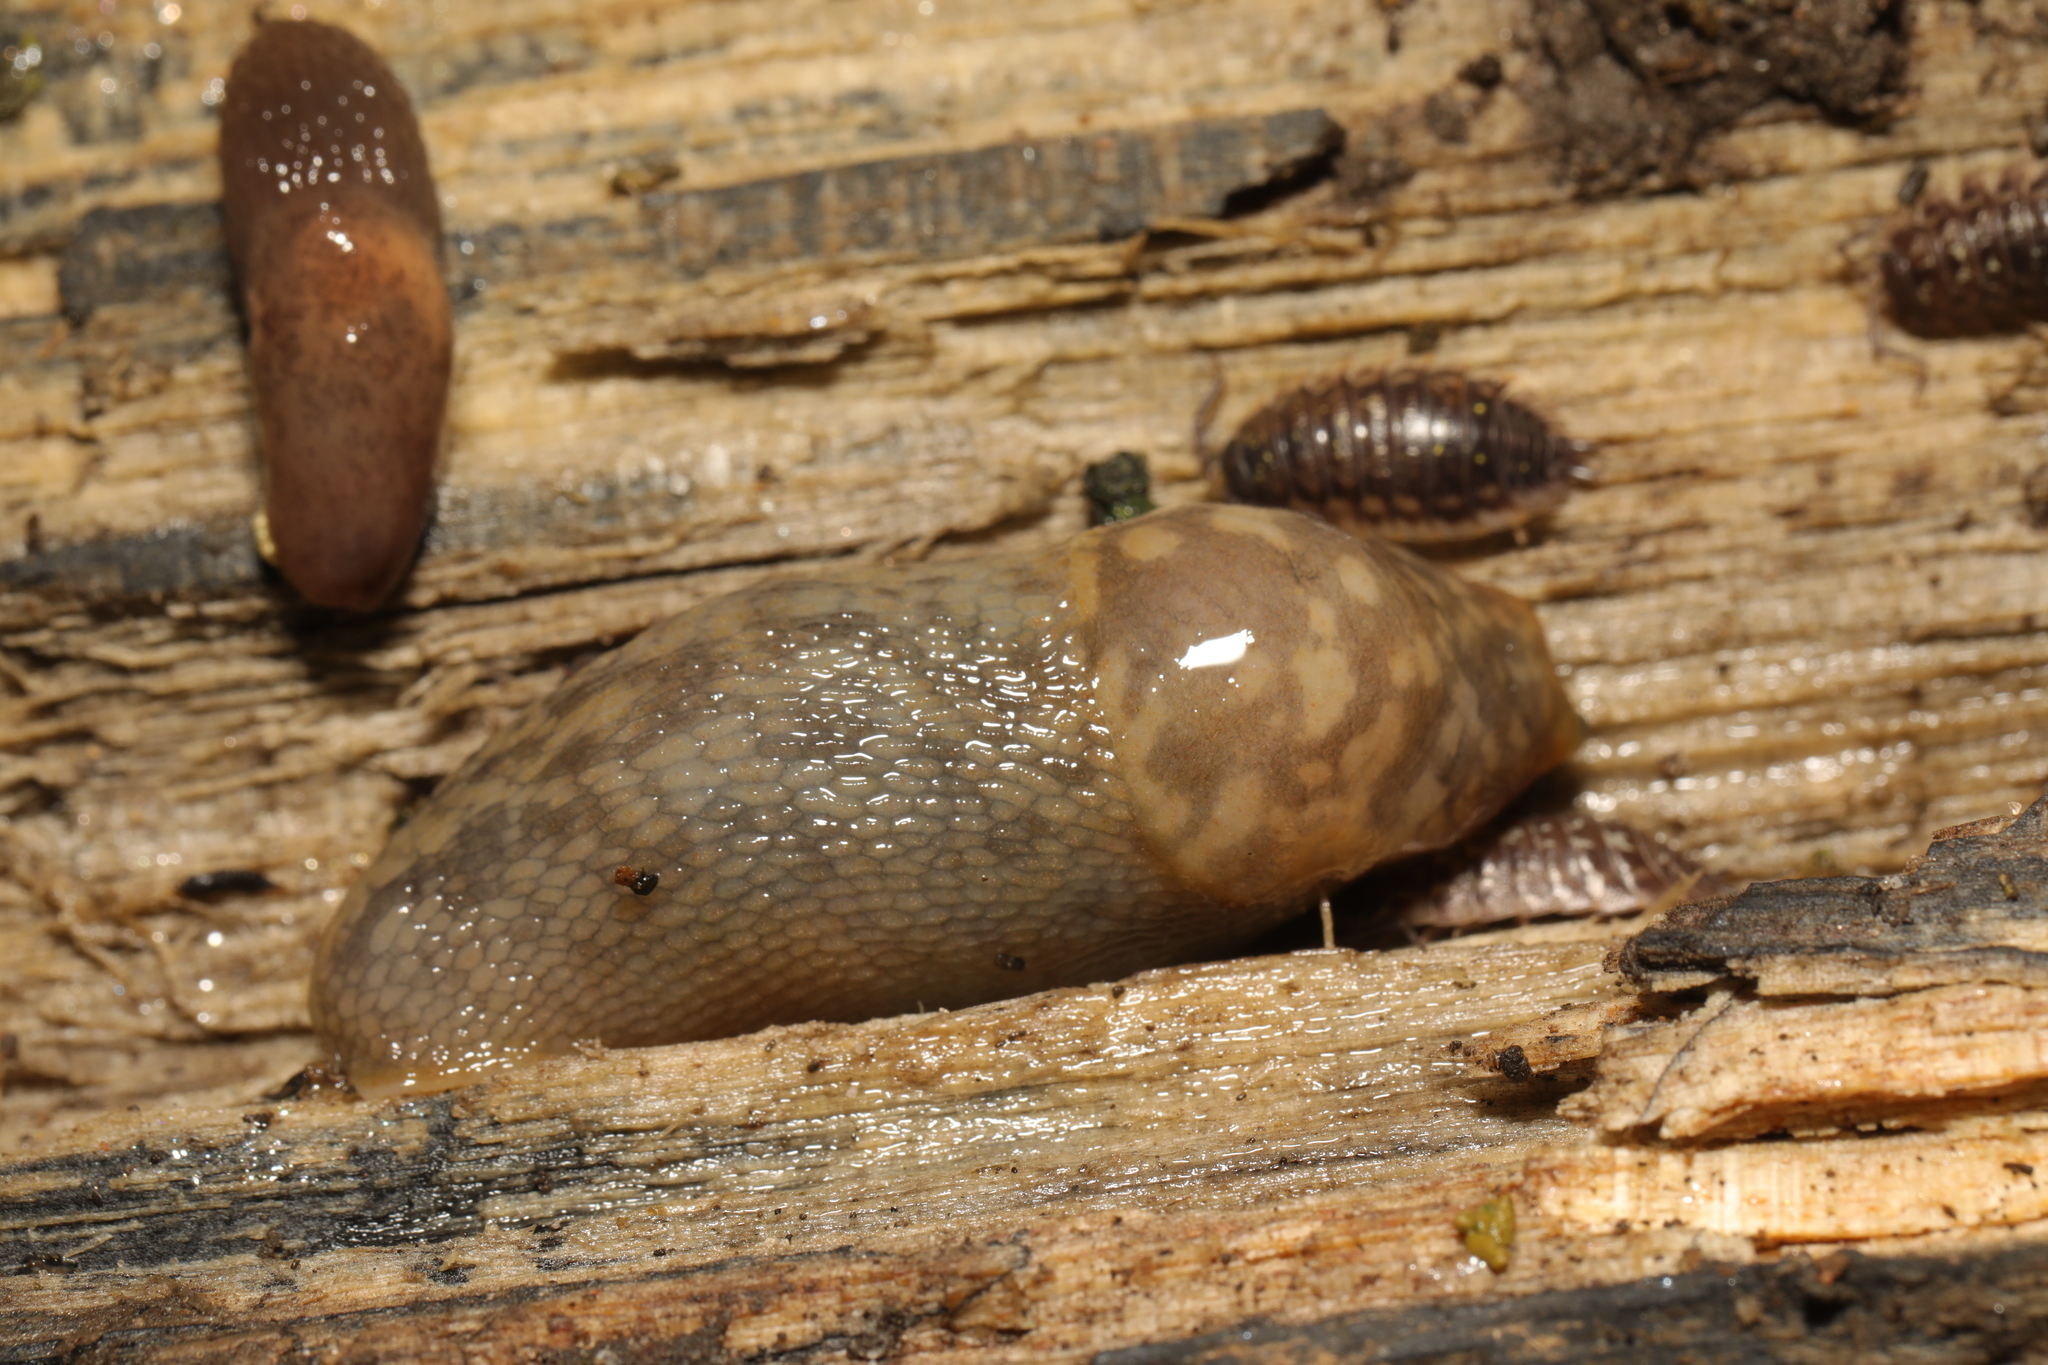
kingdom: Animalia
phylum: Mollusca
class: Gastropoda
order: Stylommatophora
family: Limacidae
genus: Limacus
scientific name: Limacus maculatus
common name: Irish yellow slug
